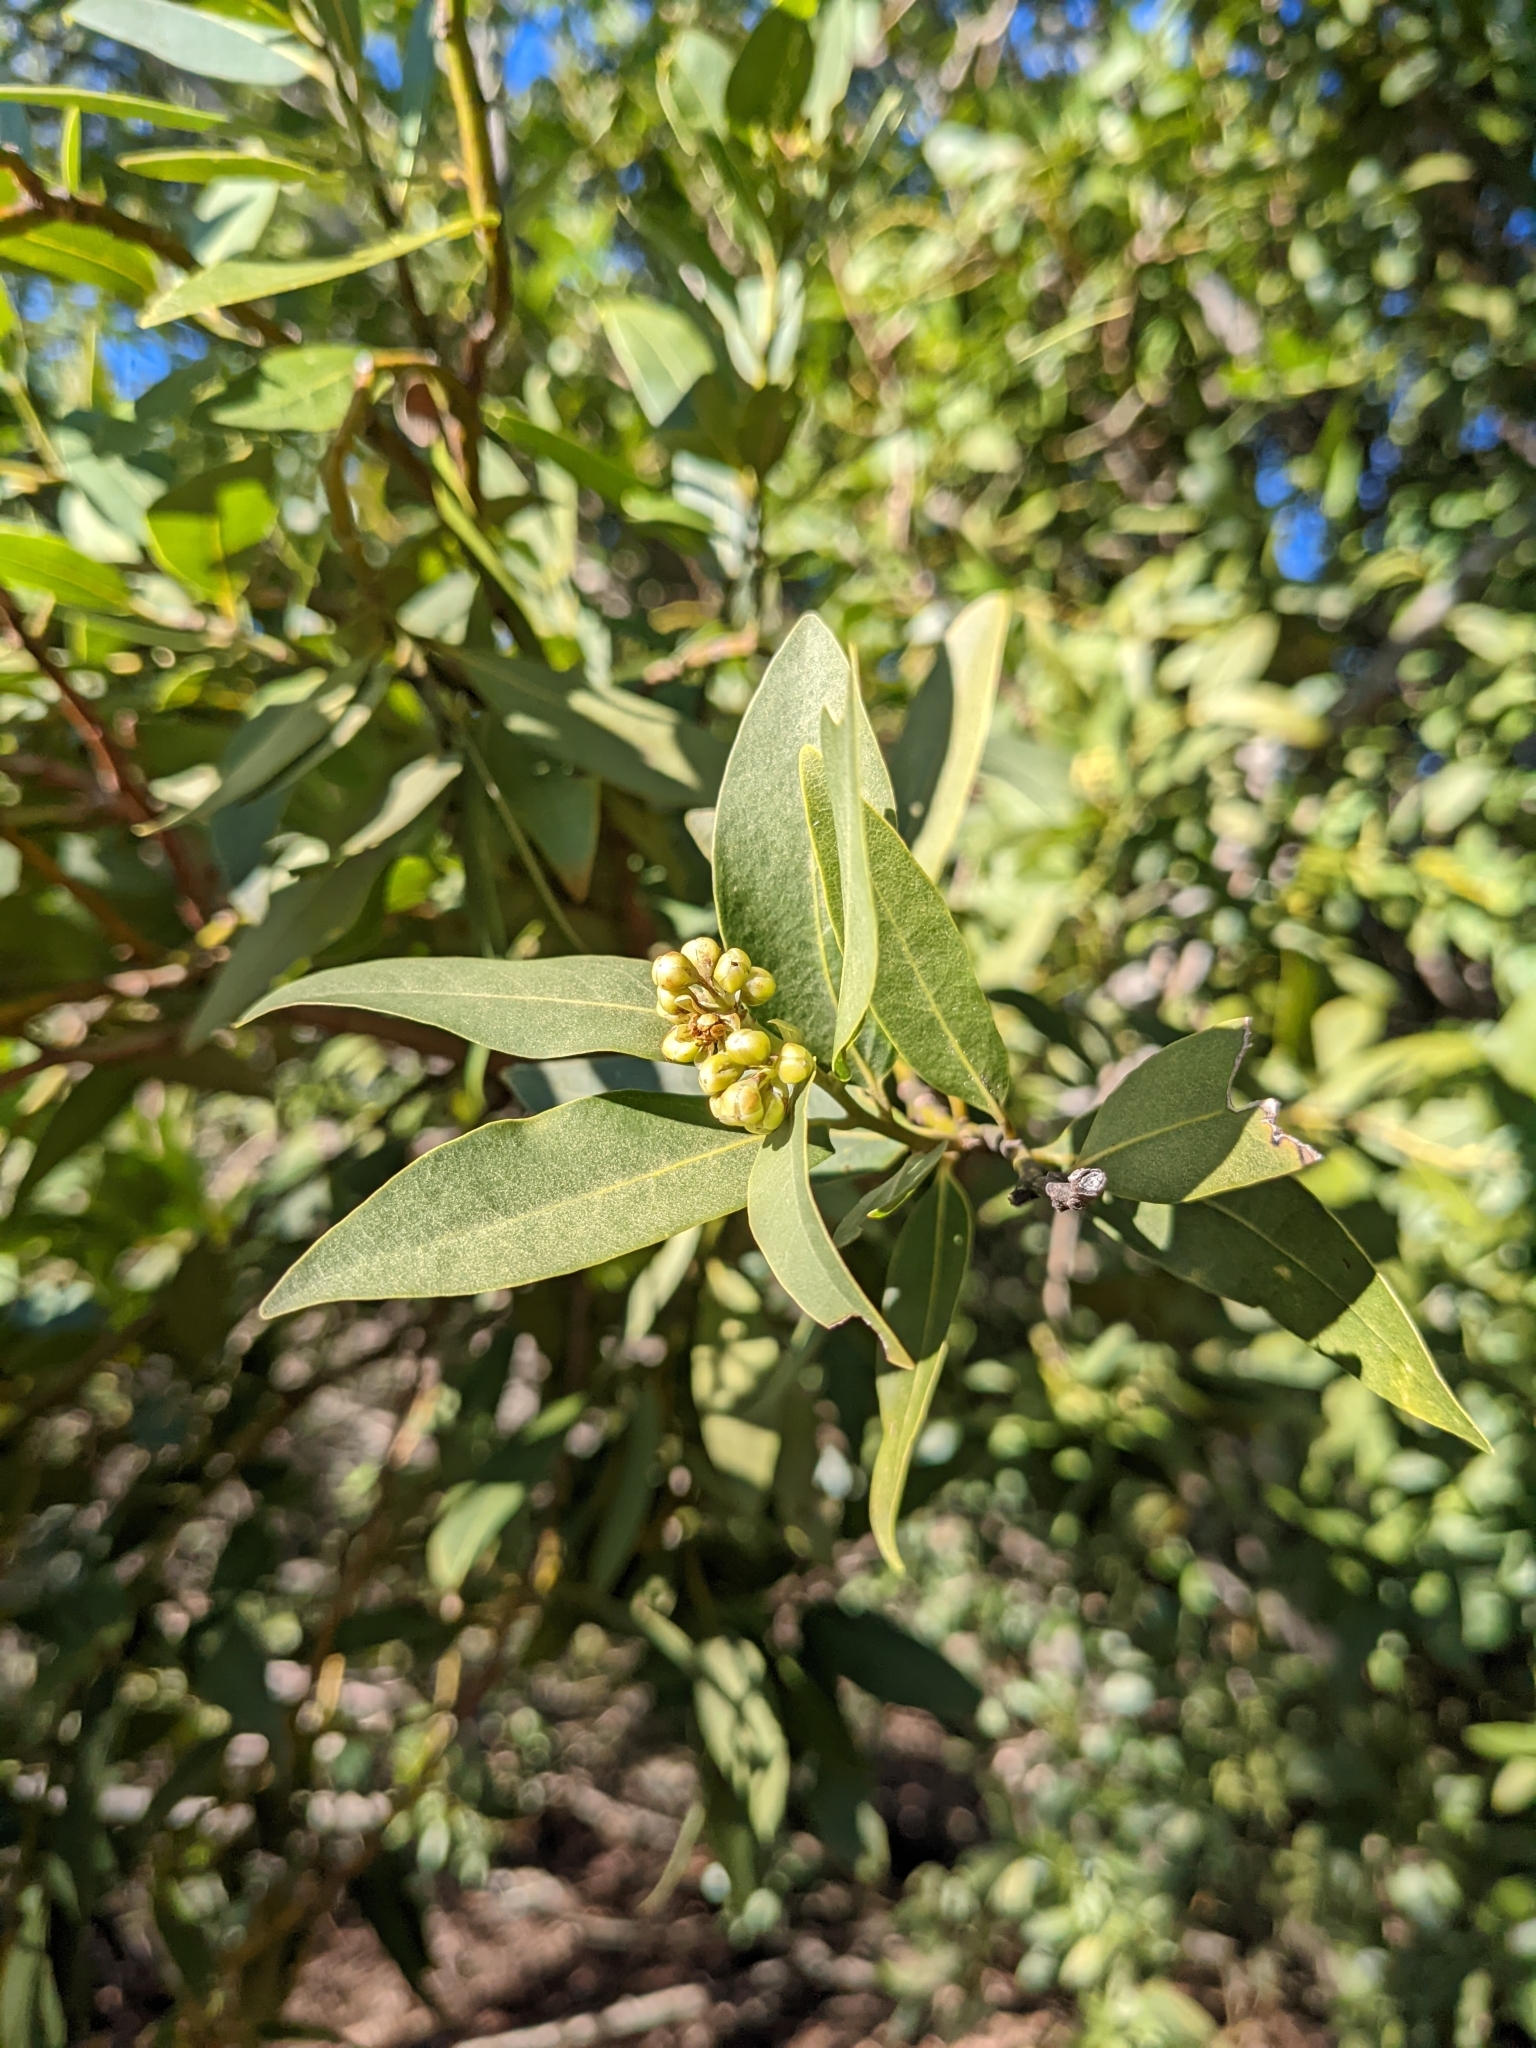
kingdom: Plantae
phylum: Tracheophyta
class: Magnoliopsida
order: Laurales
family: Lauraceae
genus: Umbellularia
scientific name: Umbellularia californica
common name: California bay
